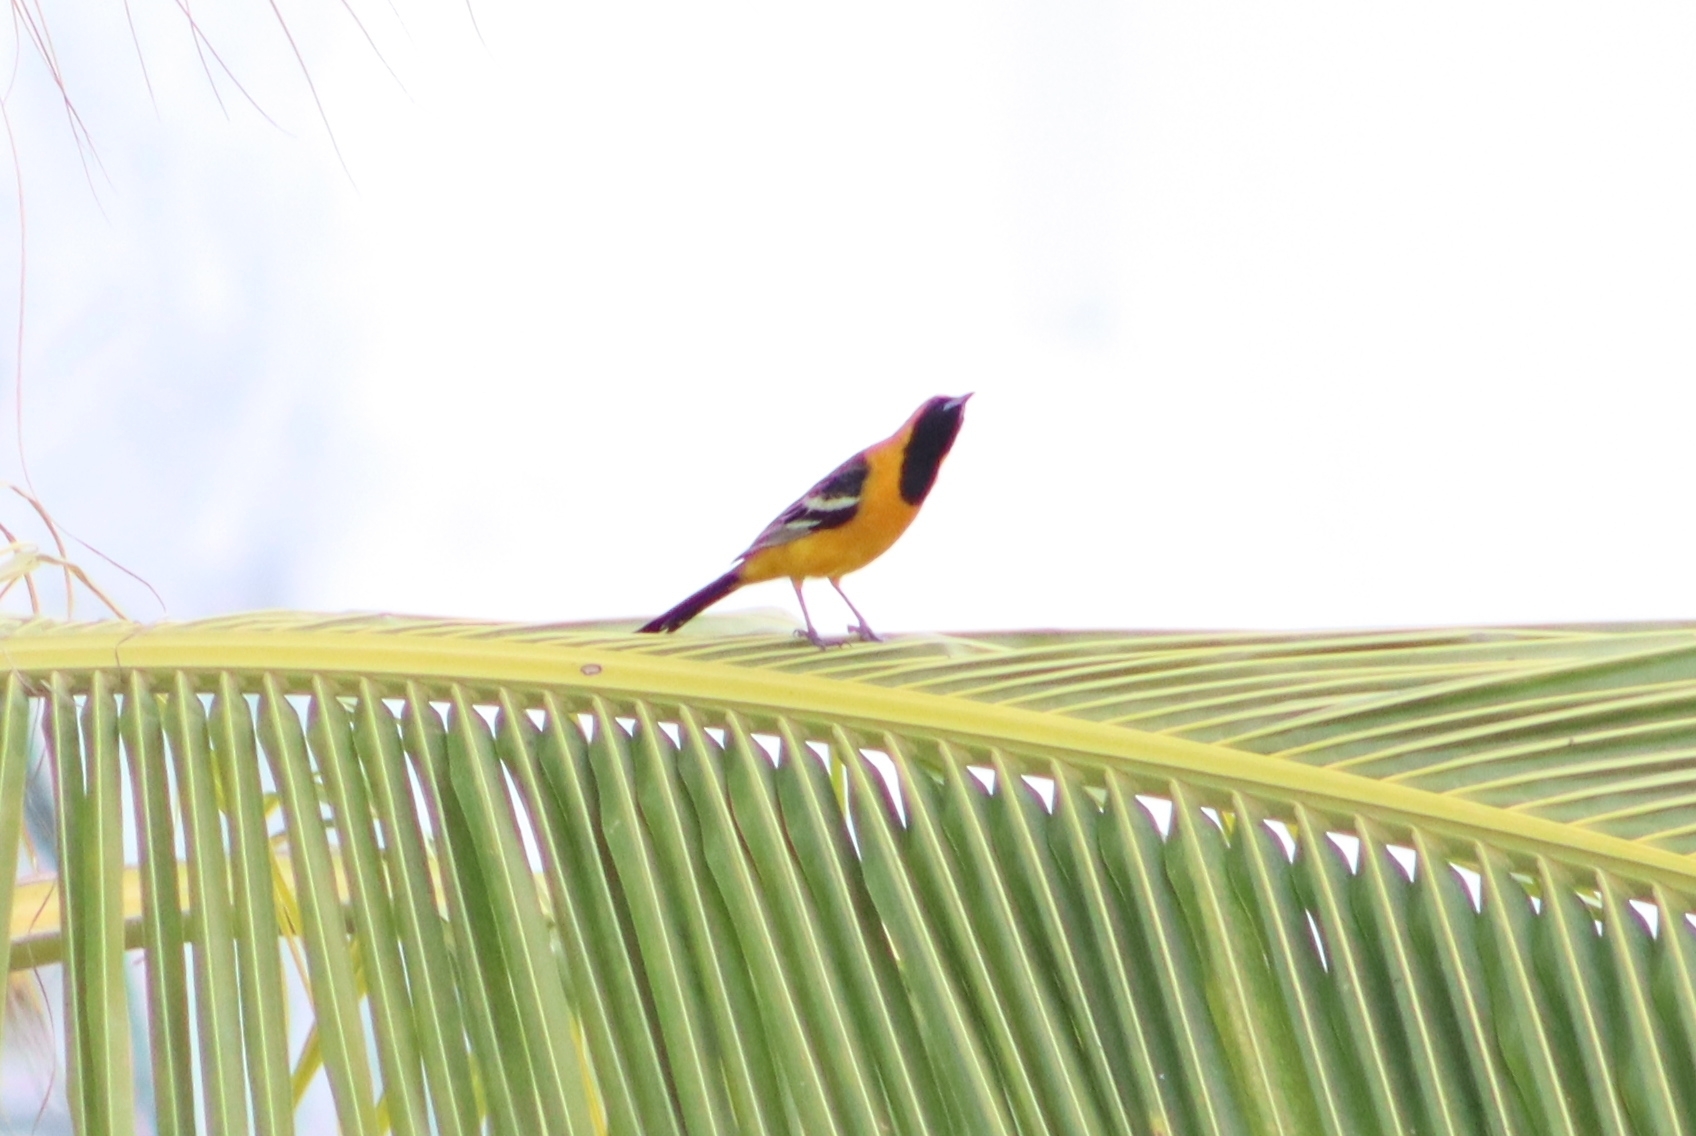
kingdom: Animalia
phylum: Chordata
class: Aves
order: Passeriformes
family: Icteridae
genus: Icterus
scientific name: Icterus cucullatus
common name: Hooded oriole
